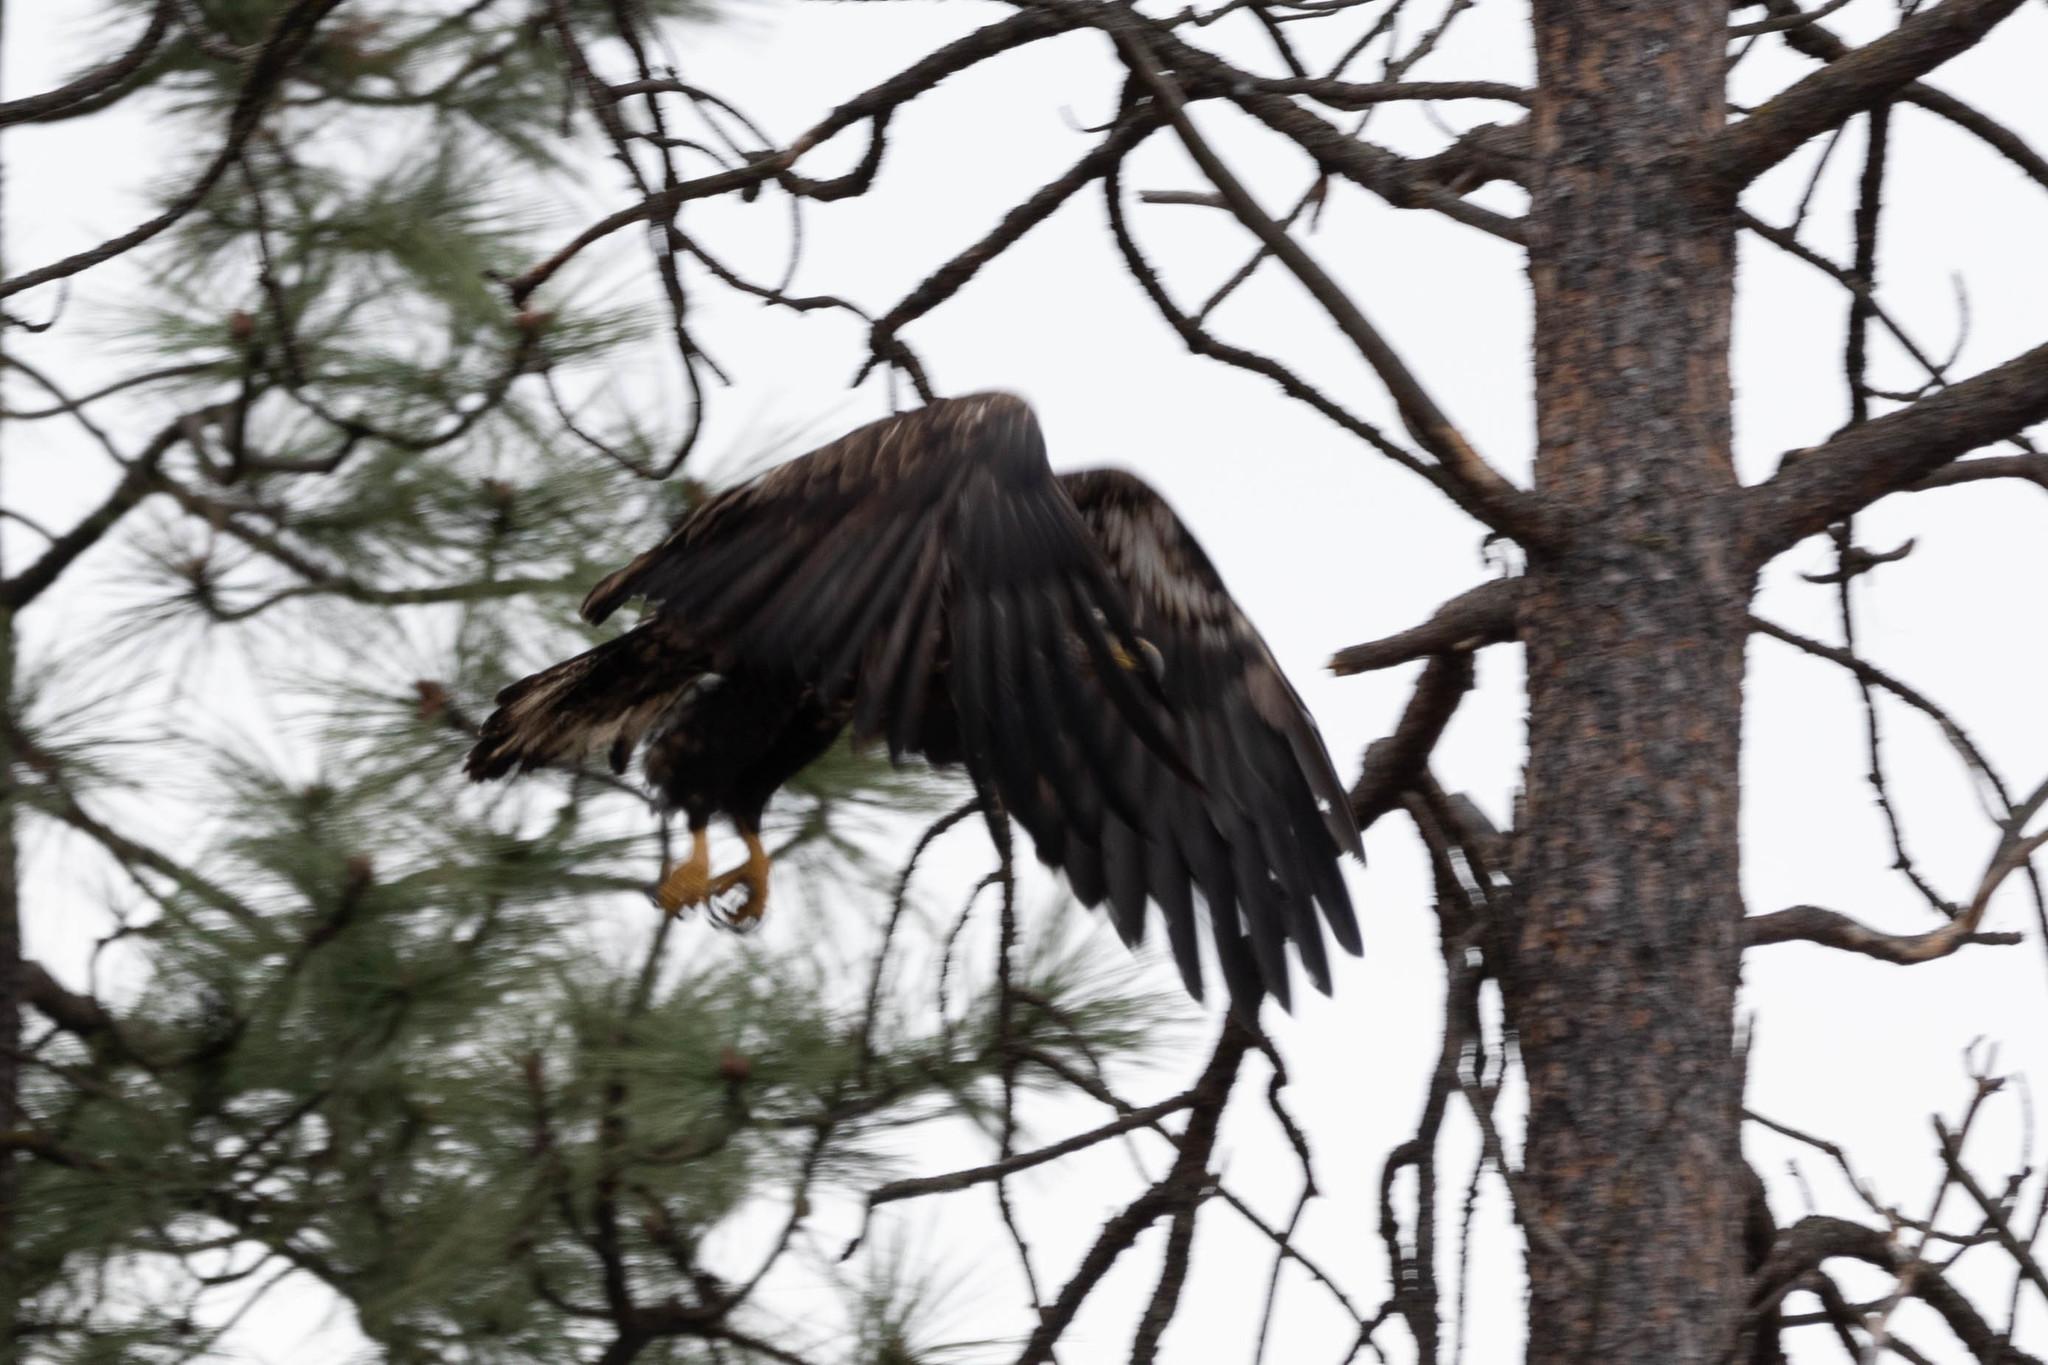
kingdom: Animalia
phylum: Chordata
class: Aves
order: Accipitriformes
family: Accipitridae
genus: Haliaeetus
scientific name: Haliaeetus leucocephalus
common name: Bald eagle
